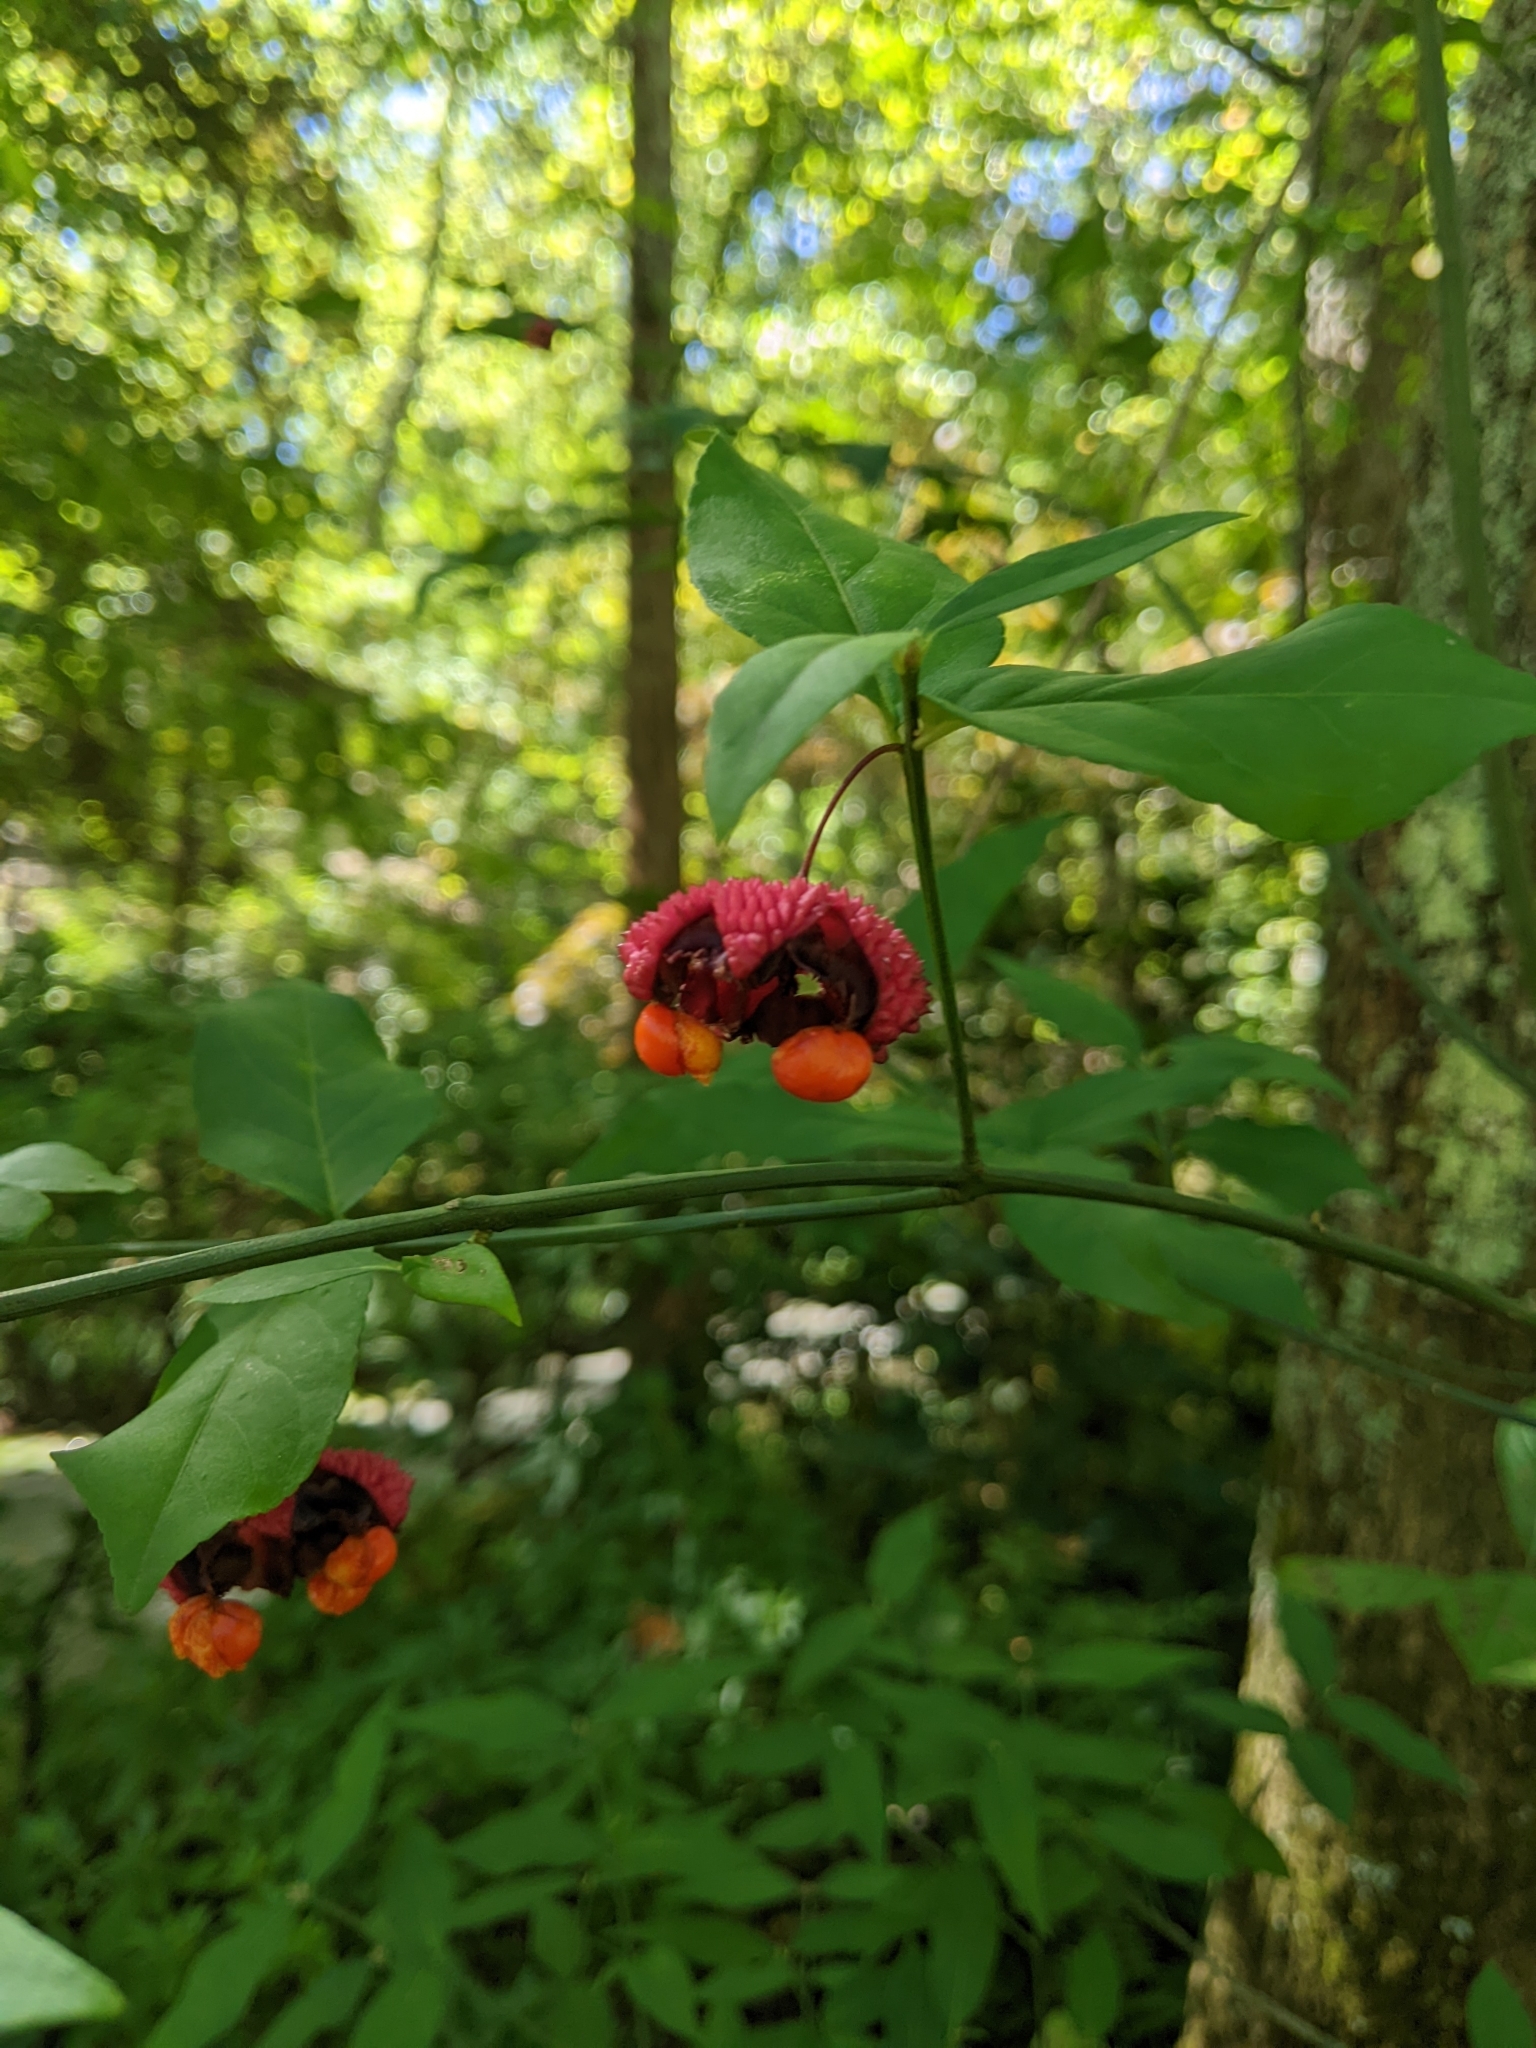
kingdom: Plantae
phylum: Tracheophyta
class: Magnoliopsida
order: Celastrales
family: Celastraceae
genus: Euonymus
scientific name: Euonymus americanus
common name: Bursting-heart
